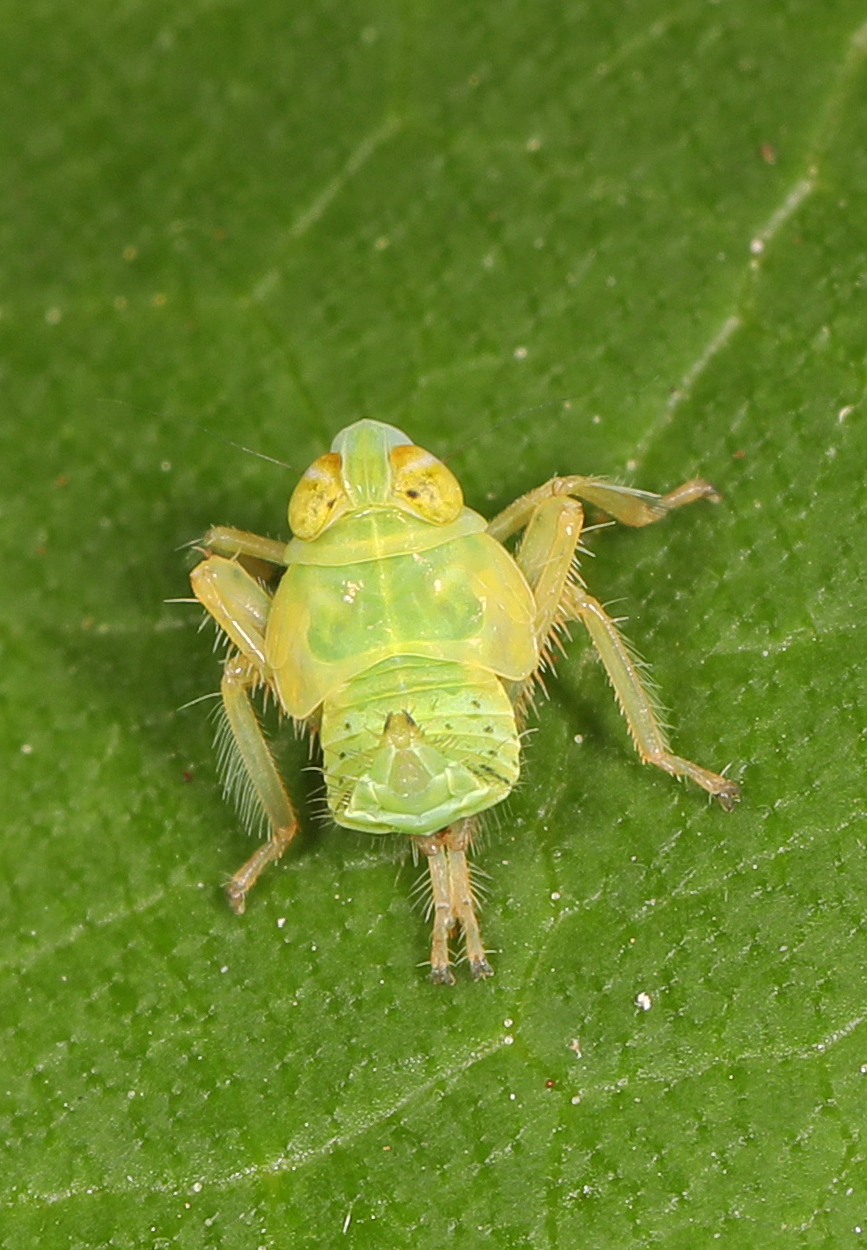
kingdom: Animalia
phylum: Arthropoda
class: Insecta
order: Hemiptera
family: Cicadellidae
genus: Jikradia
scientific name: Jikradia olitoria
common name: Coppery leafhopper
